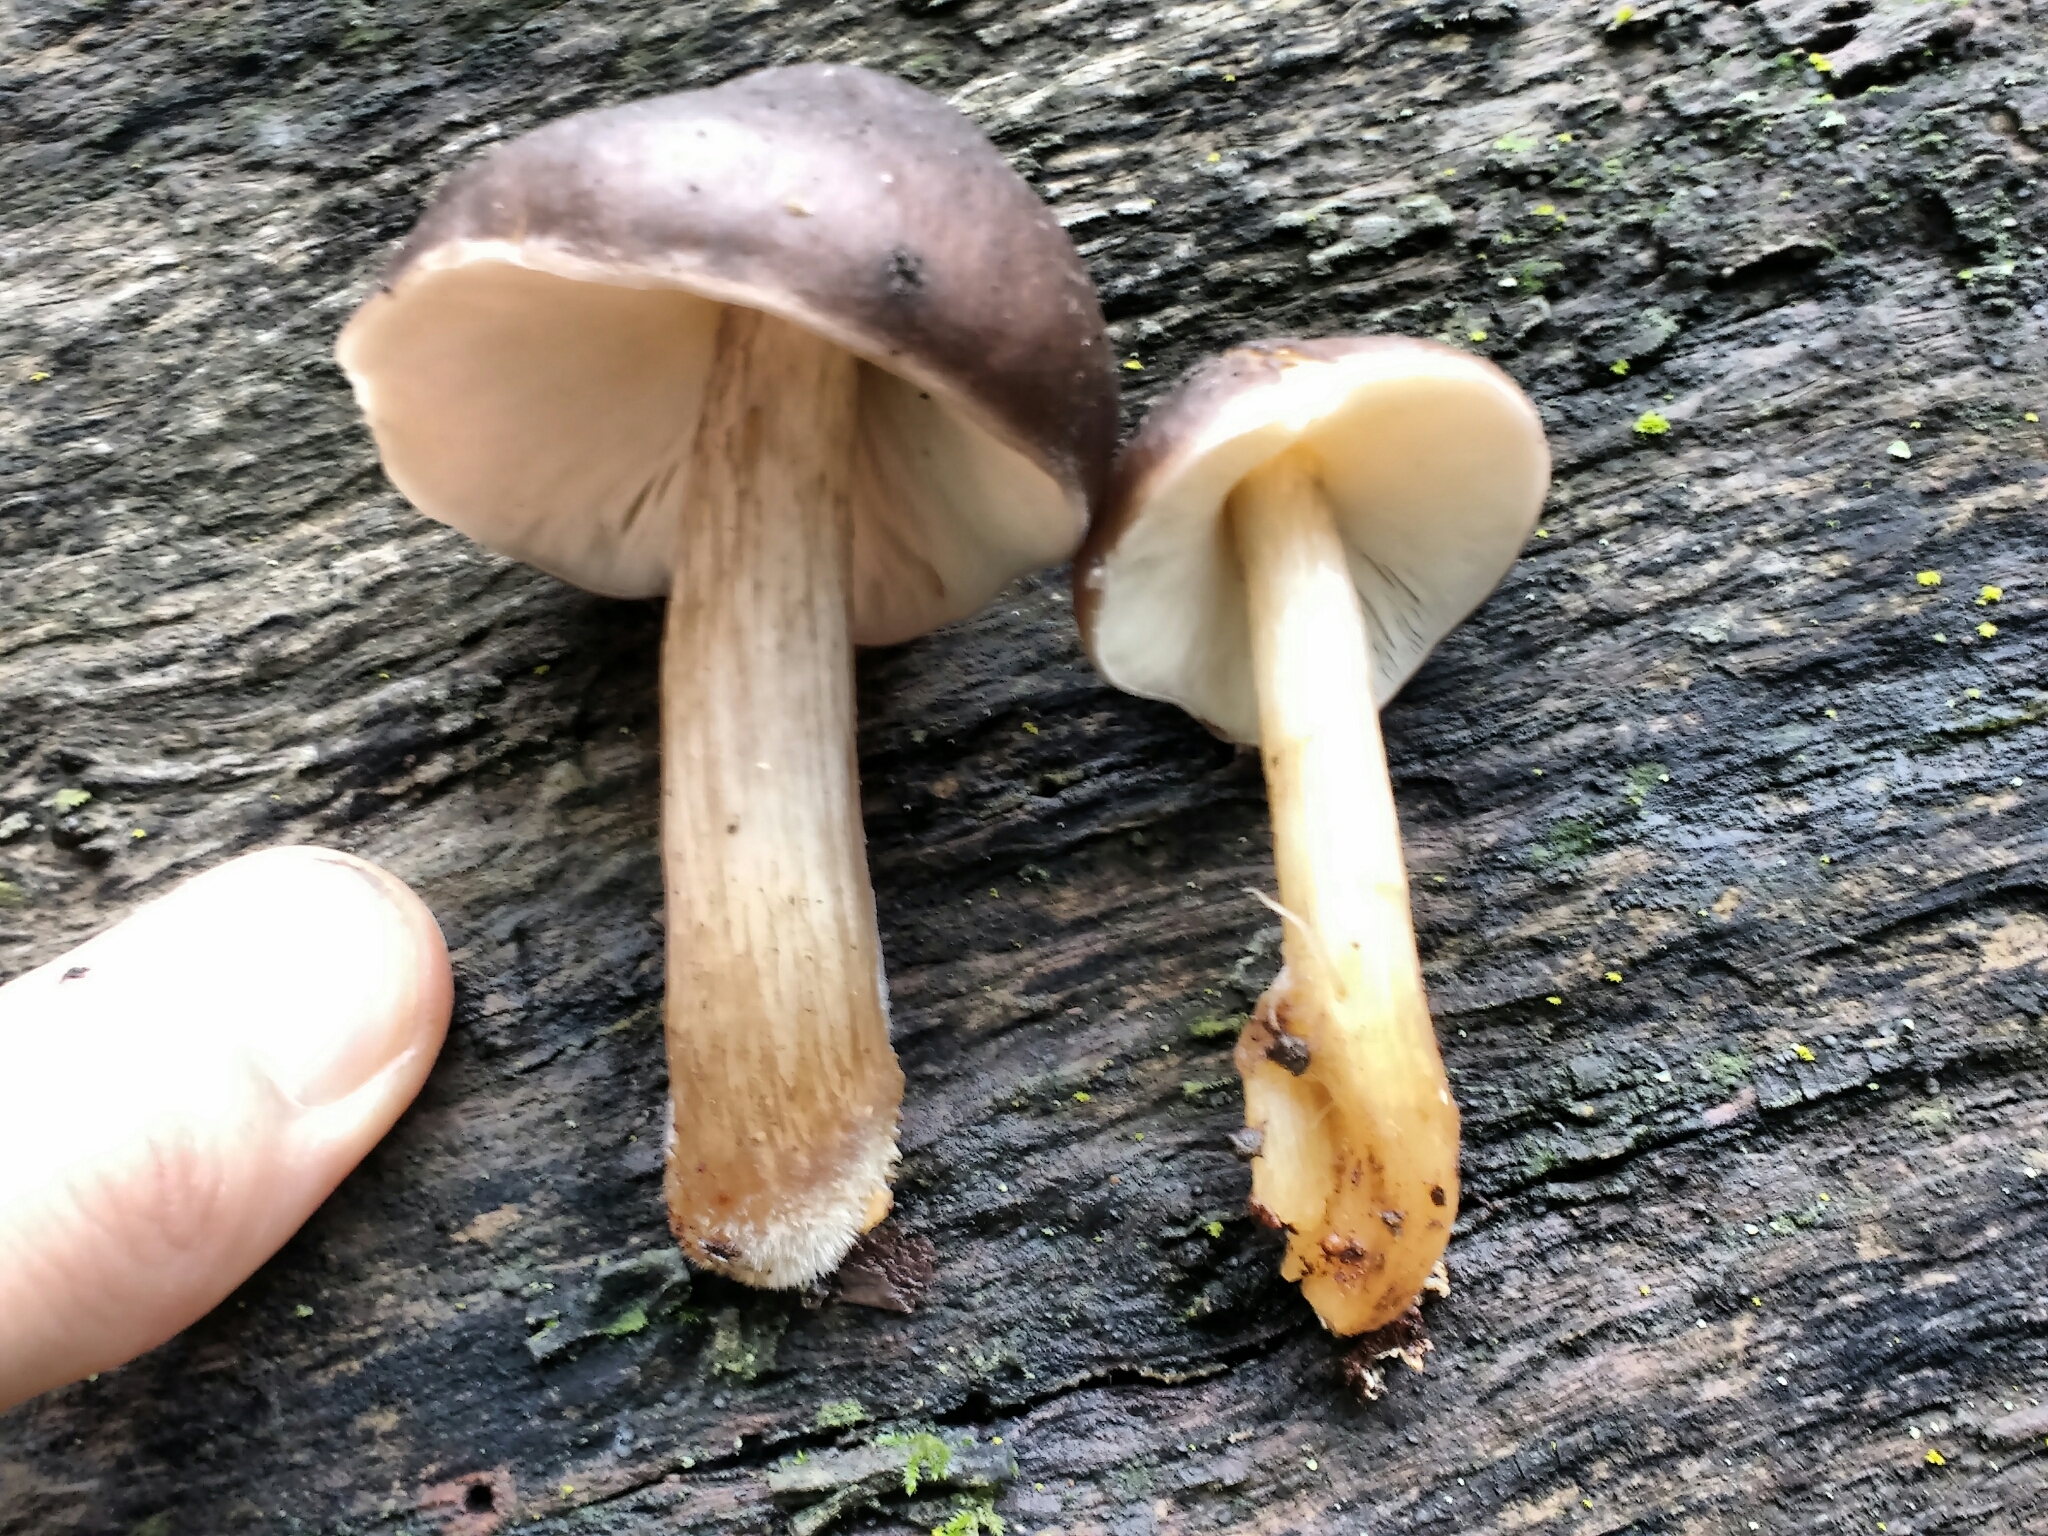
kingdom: Fungi
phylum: Basidiomycota
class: Agaricomycetes
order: Agaricales
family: Pluteaceae
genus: Pluteus
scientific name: Pluteus cervinus
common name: Deer shield
